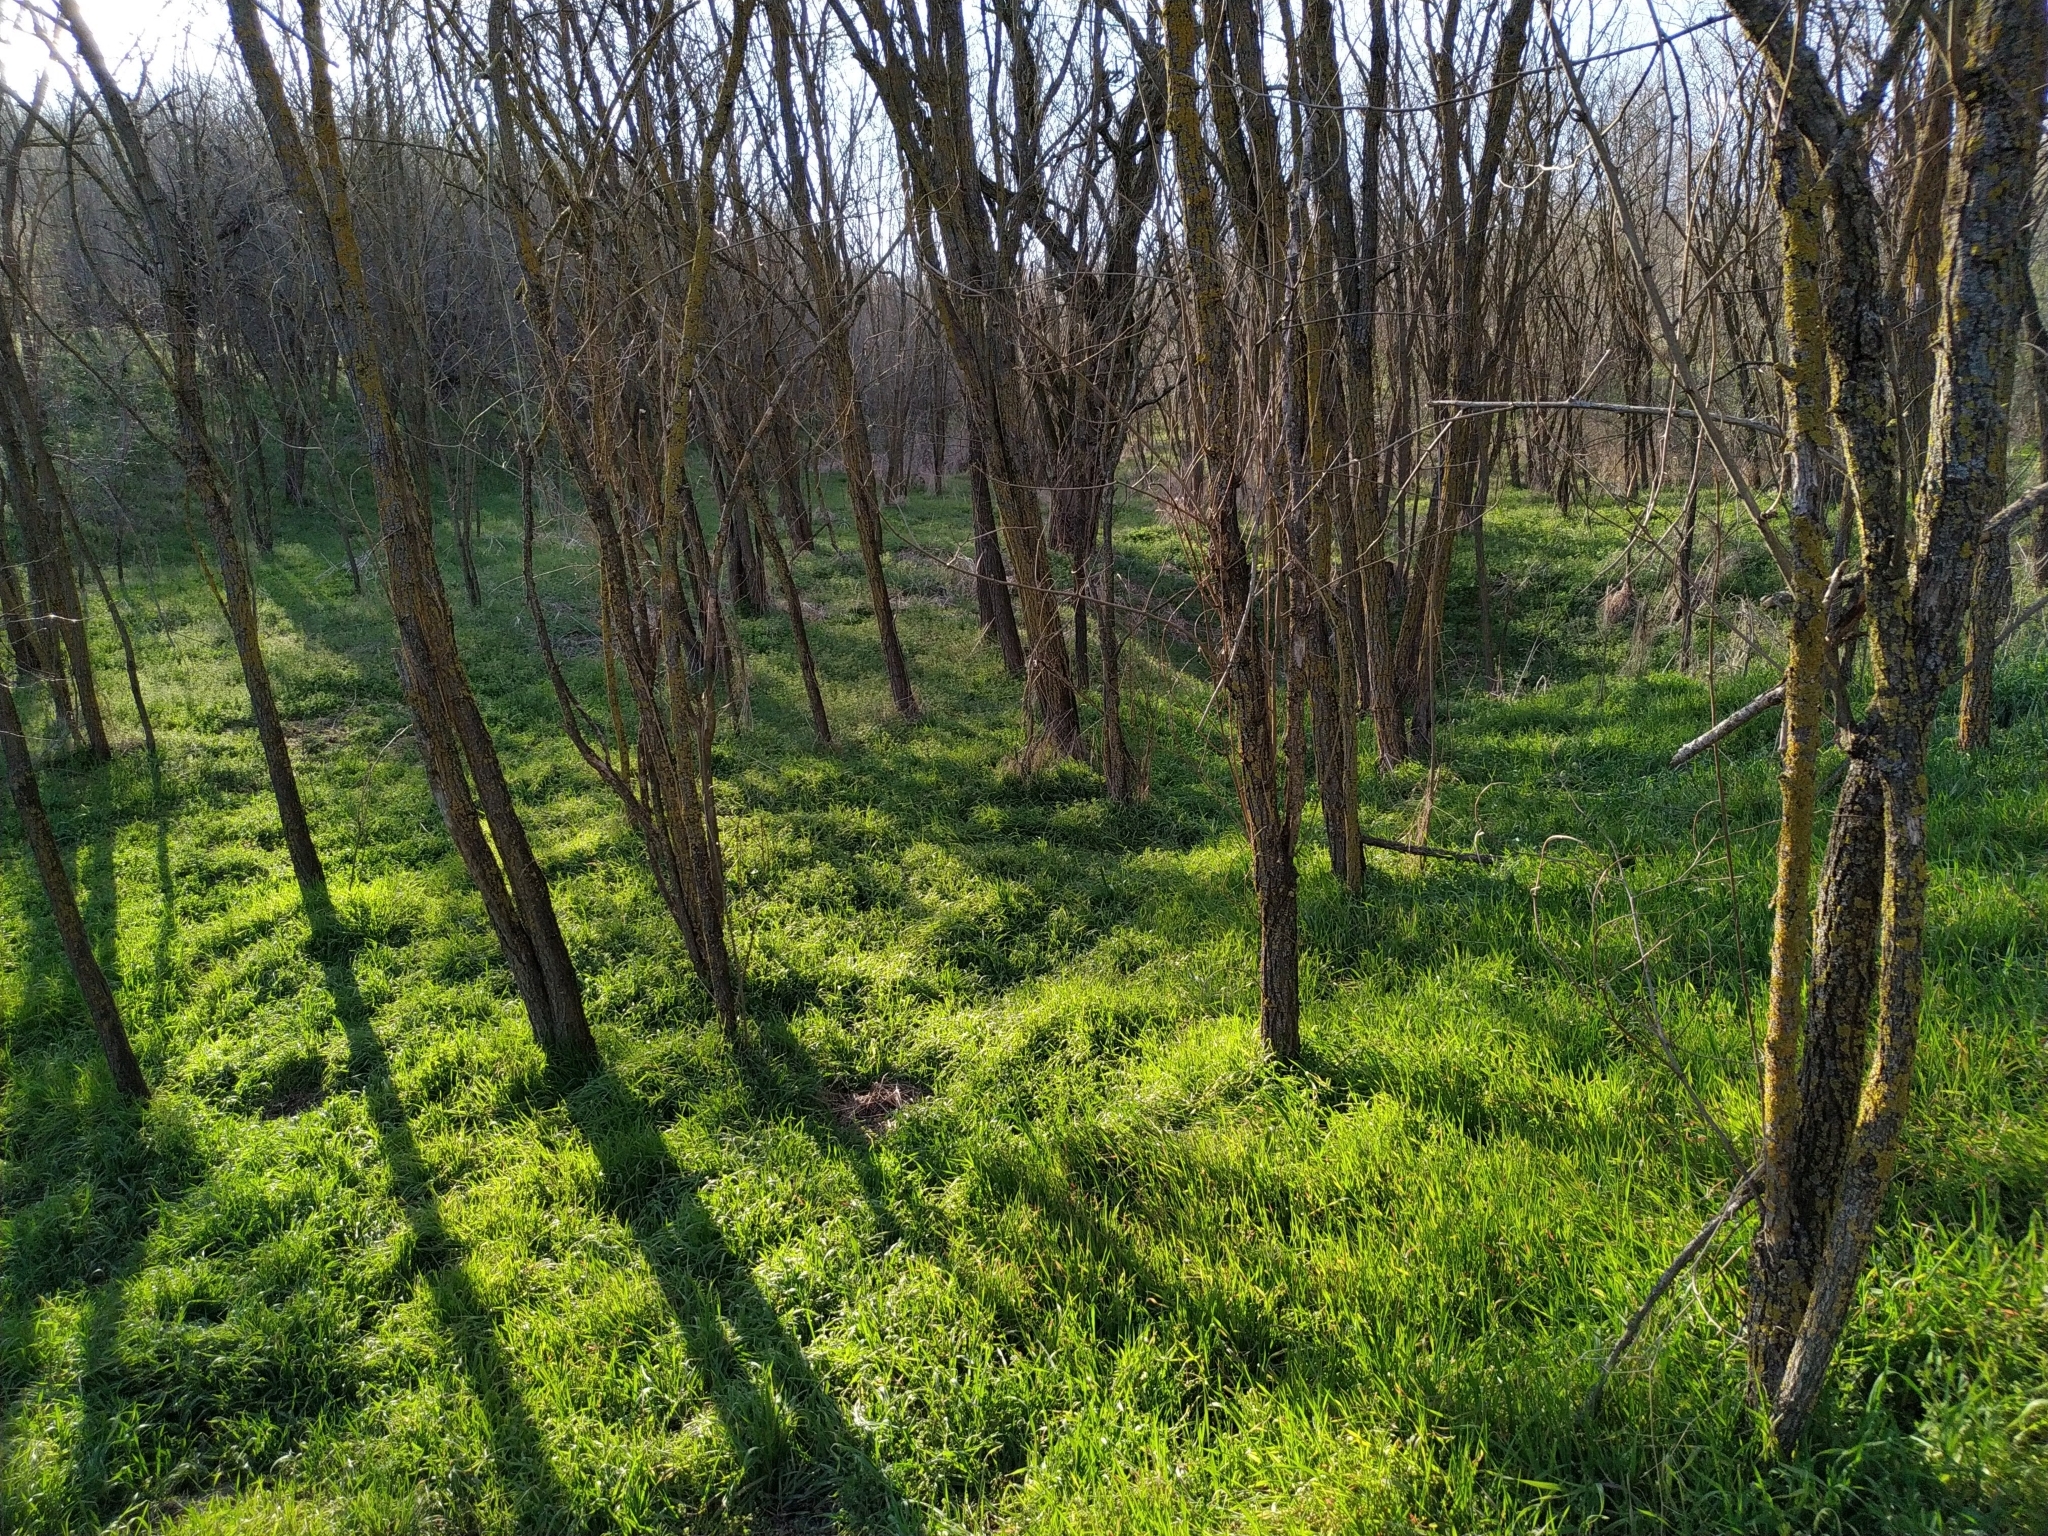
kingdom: Plantae
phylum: Tracheophyta
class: Magnoliopsida
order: Fabales
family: Fabaceae
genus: Robinia
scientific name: Robinia pseudoacacia
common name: Black locust
